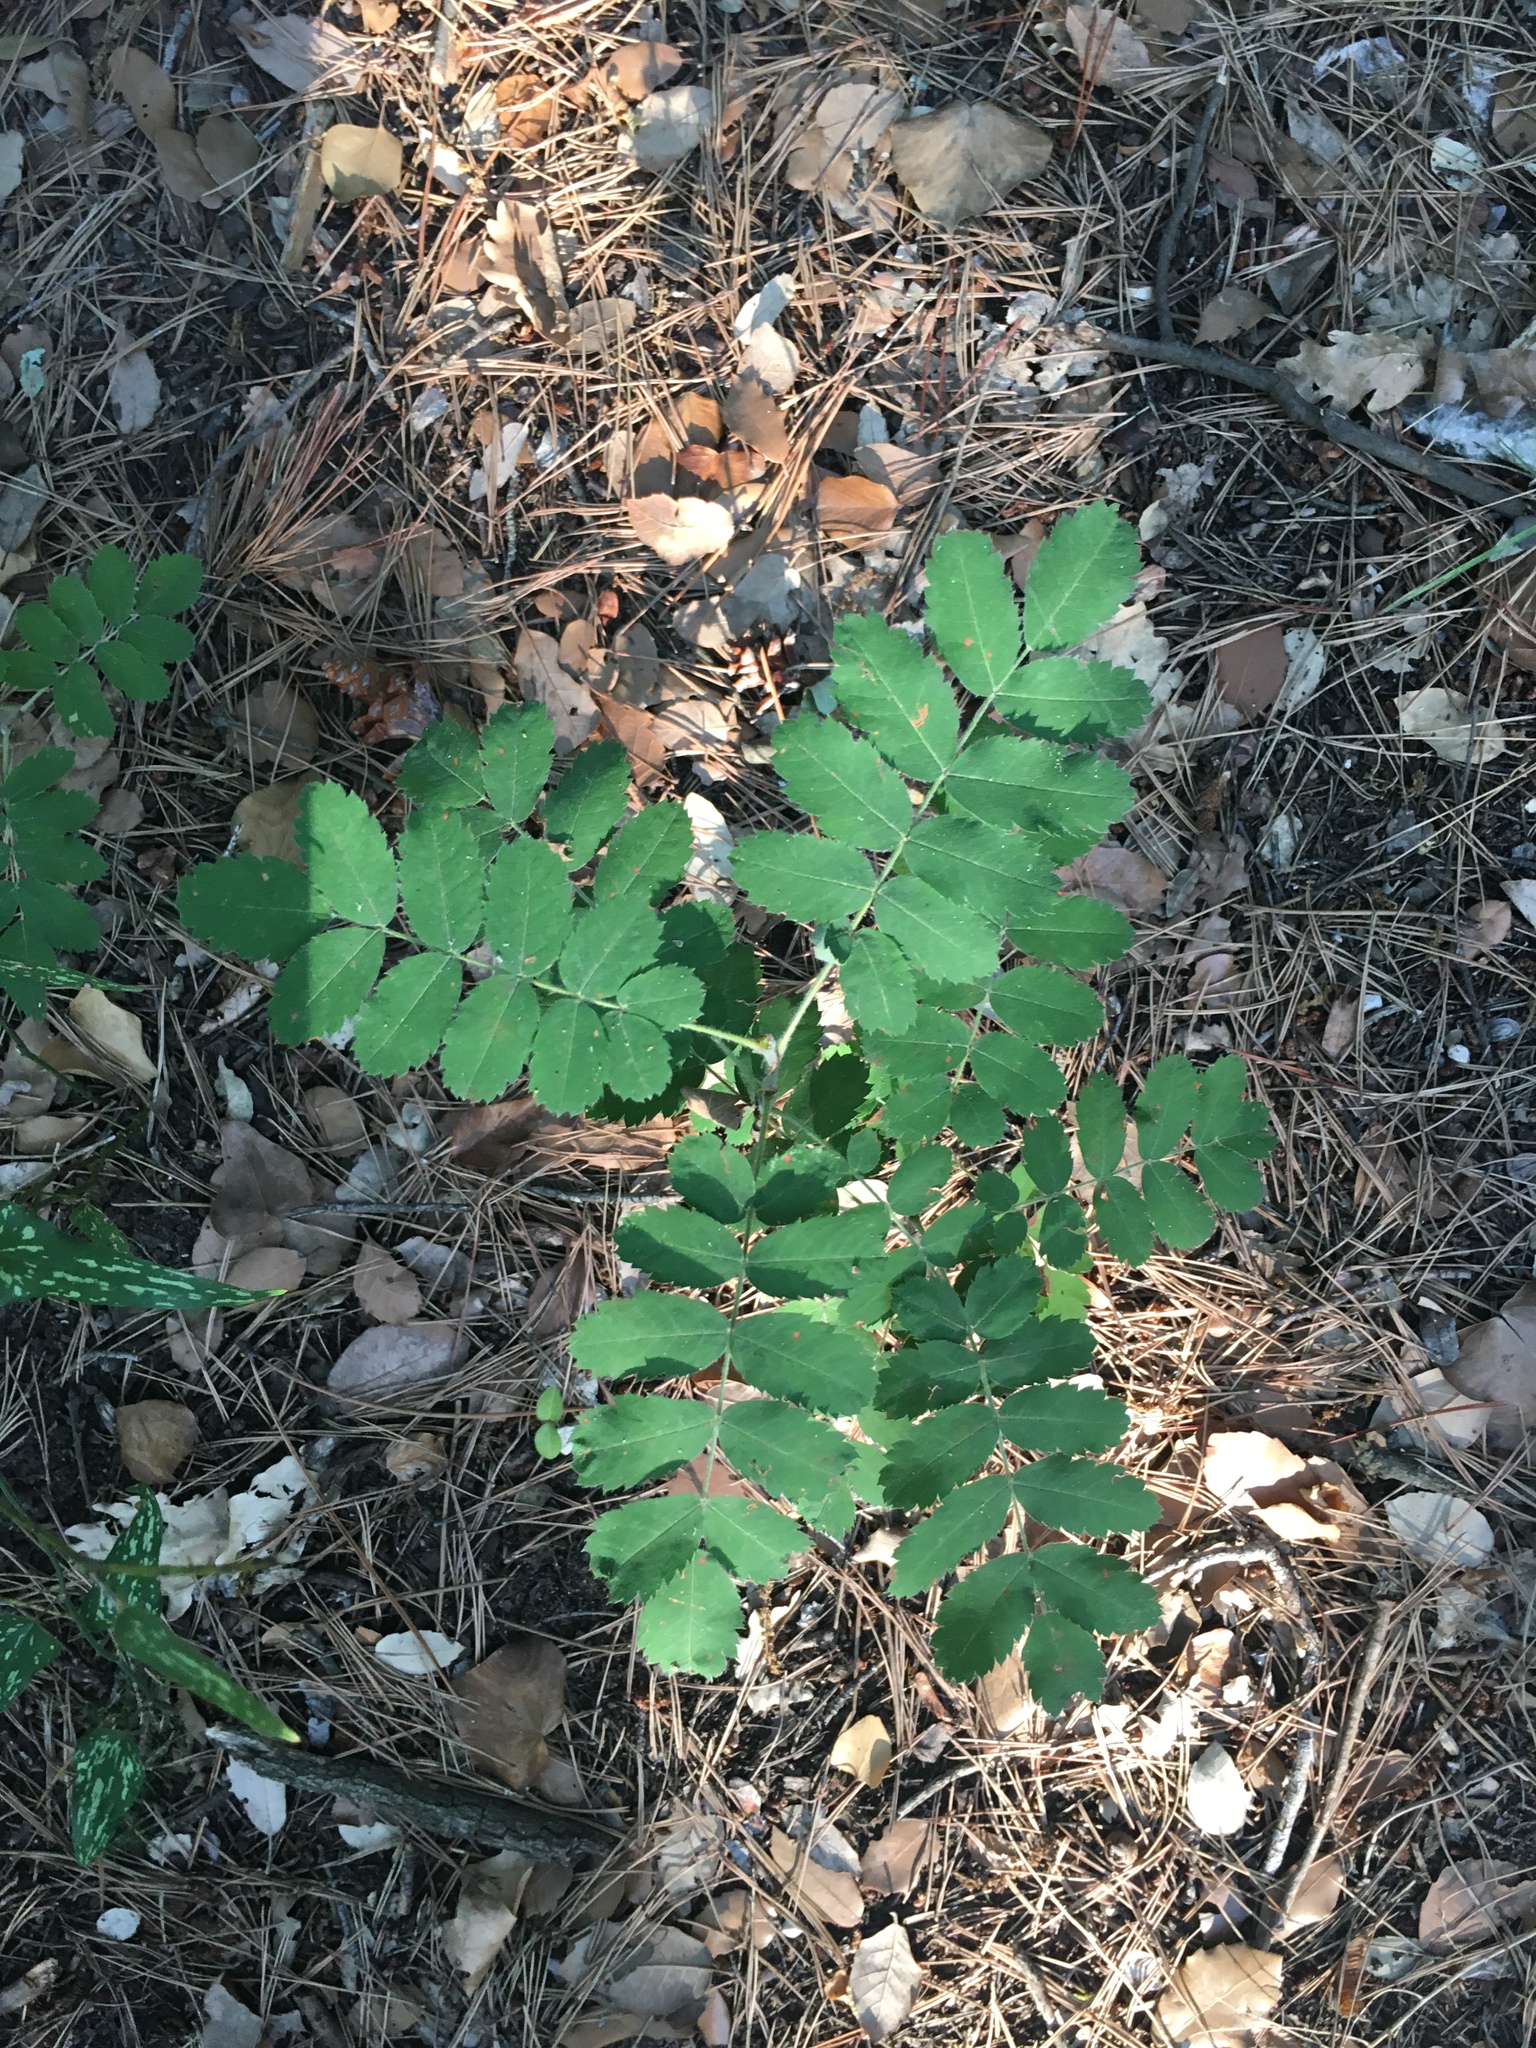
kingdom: Plantae
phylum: Tracheophyta
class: Magnoliopsida
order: Rosales
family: Rosaceae
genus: Sorbus
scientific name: Sorbus aucuparia
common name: Rowan
